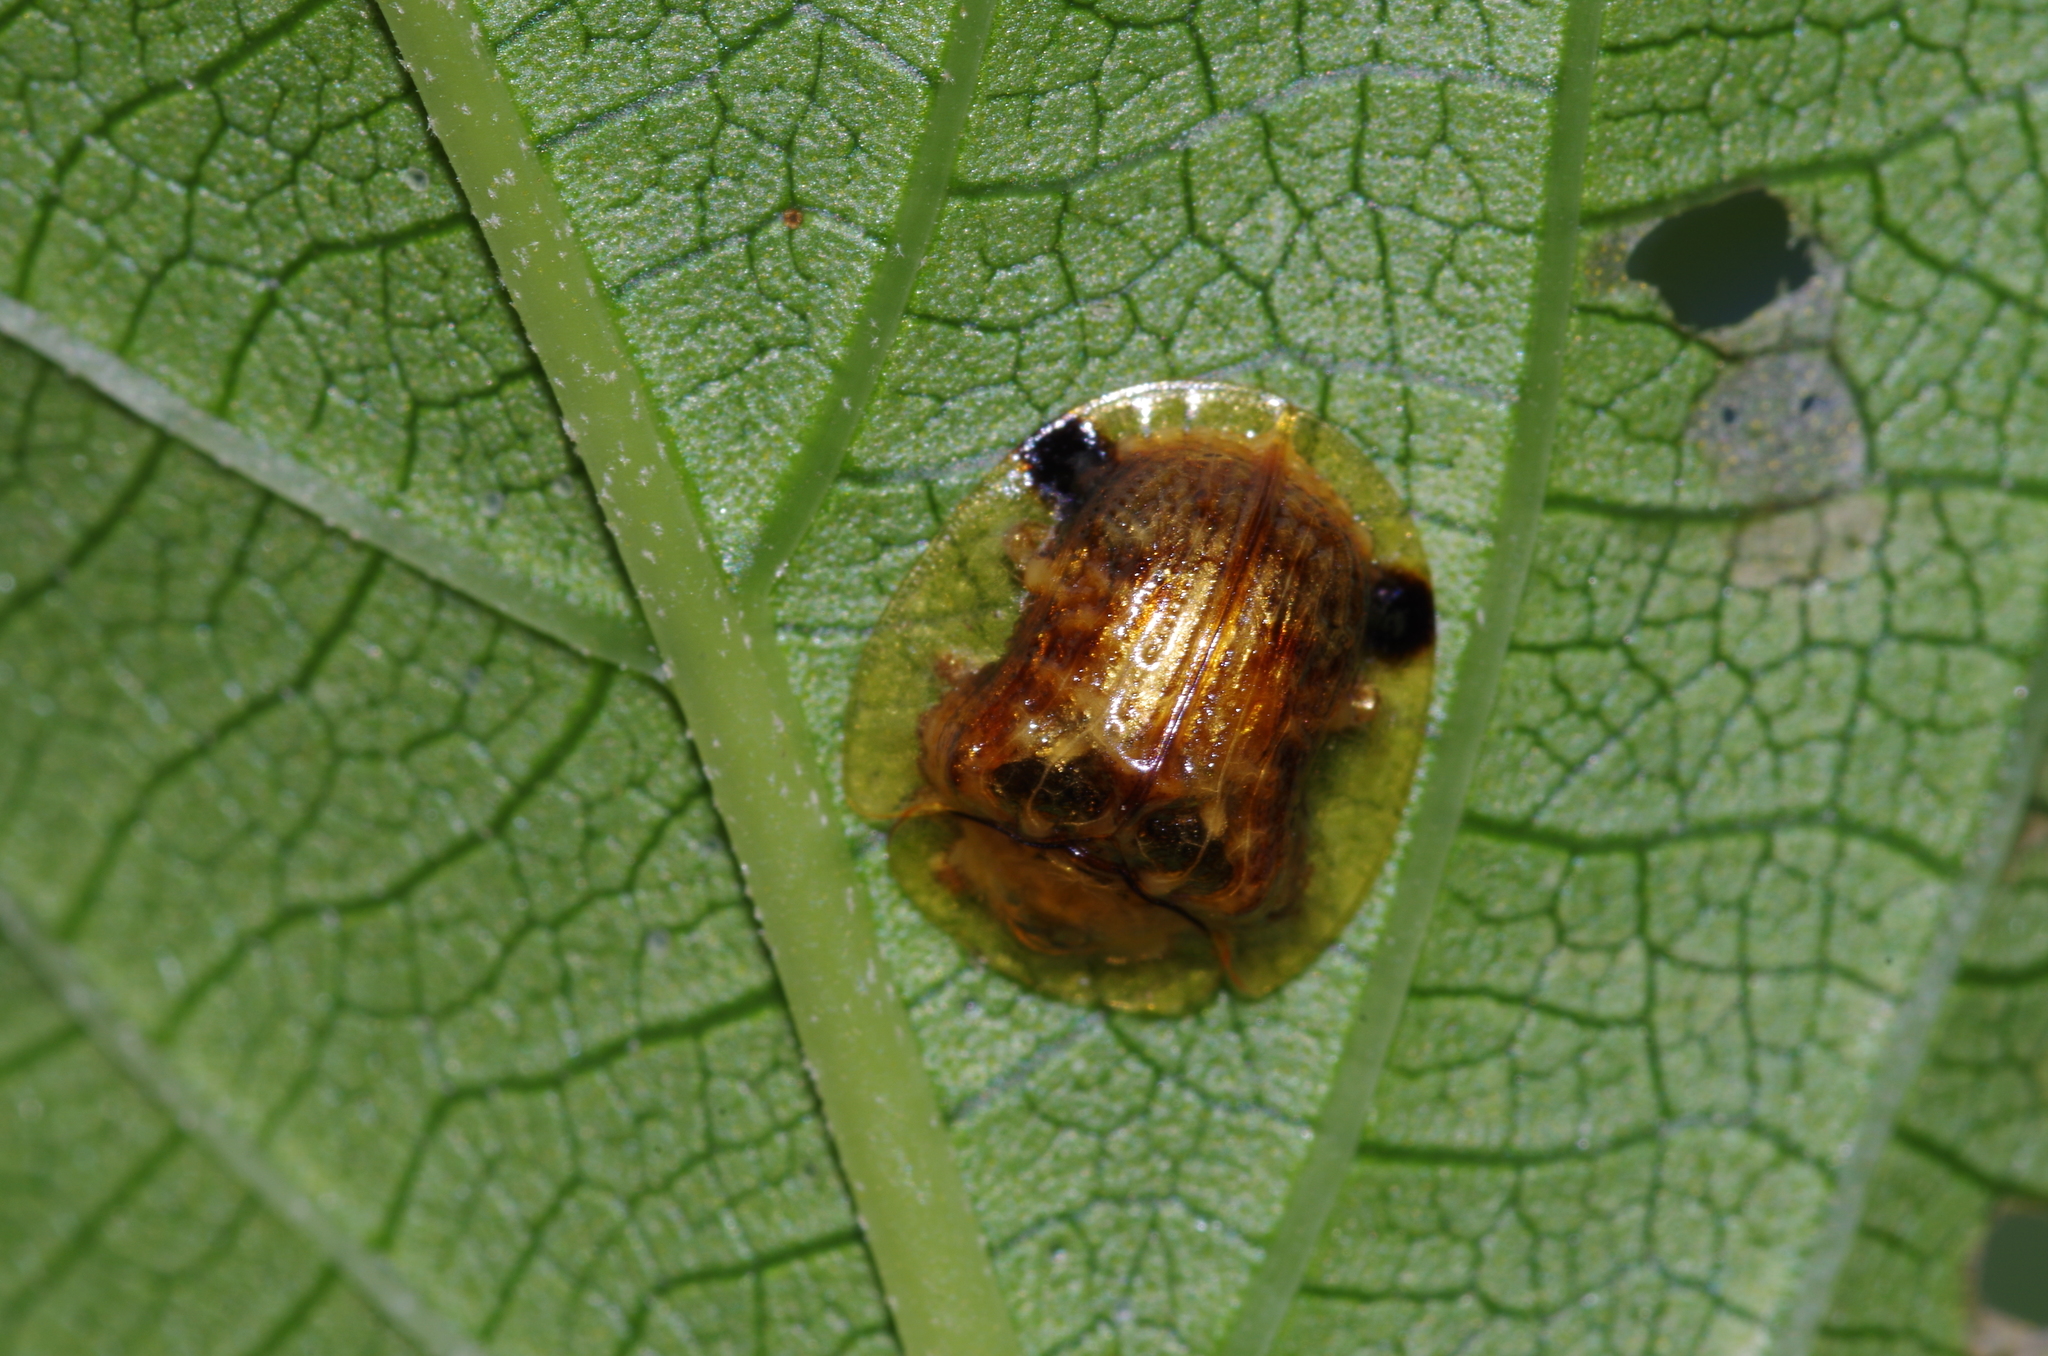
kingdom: Animalia
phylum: Arthropoda
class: Insecta
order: Coleoptera
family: Chrysomelidae
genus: Thlaspida
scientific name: Thlaspida cribrosa
